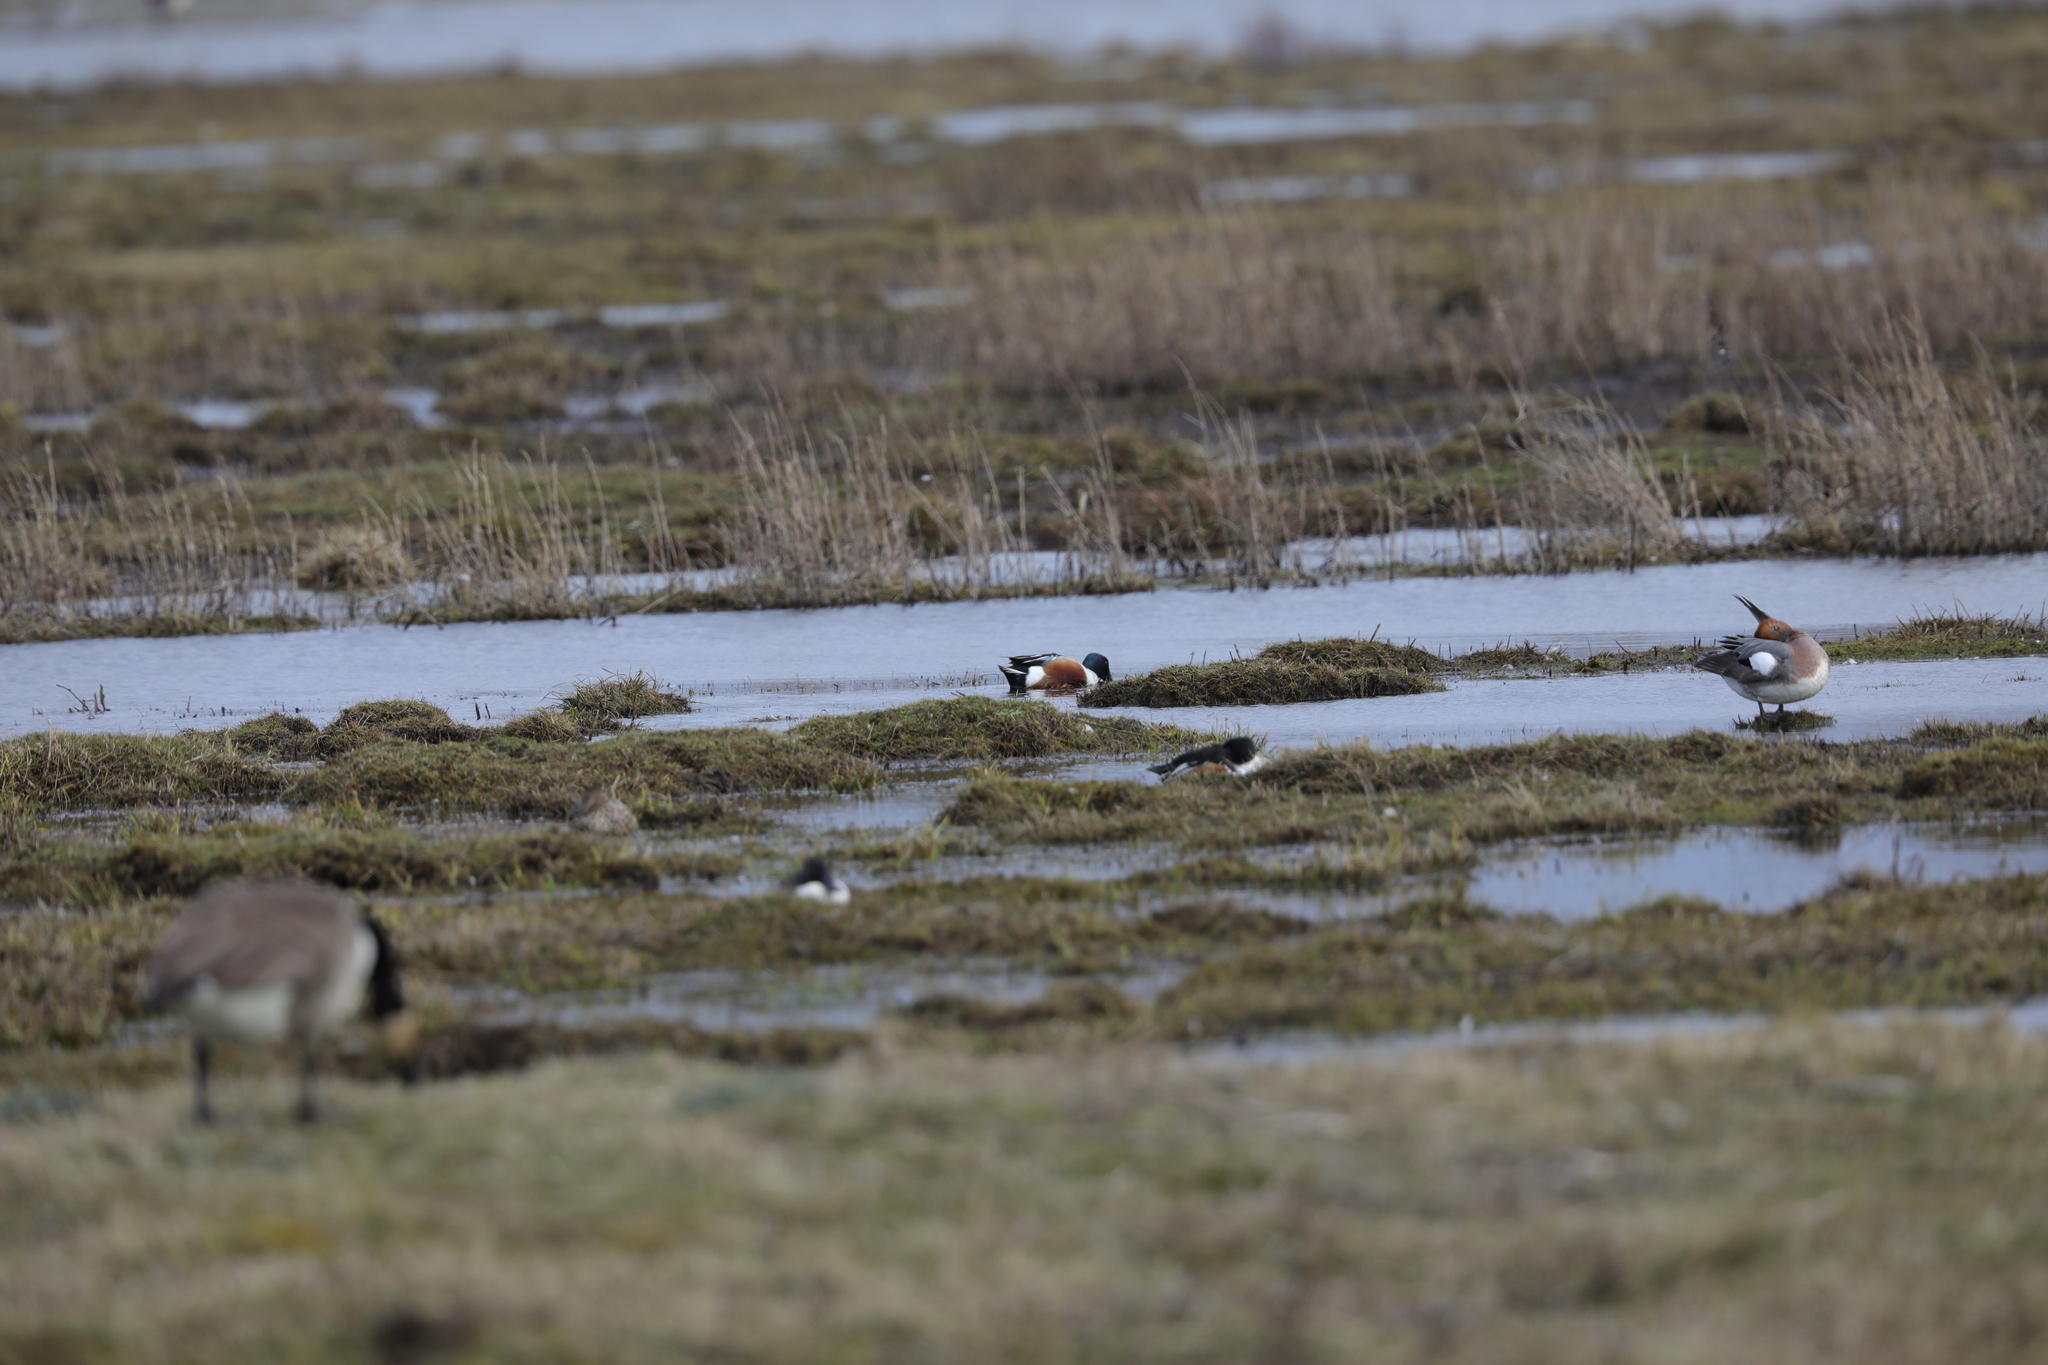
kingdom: Animalia
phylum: Chordata
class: Aves
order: Anseriformes
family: Anatidae
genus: Spatula
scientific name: Spatula clypeata
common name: Northern shoveler
